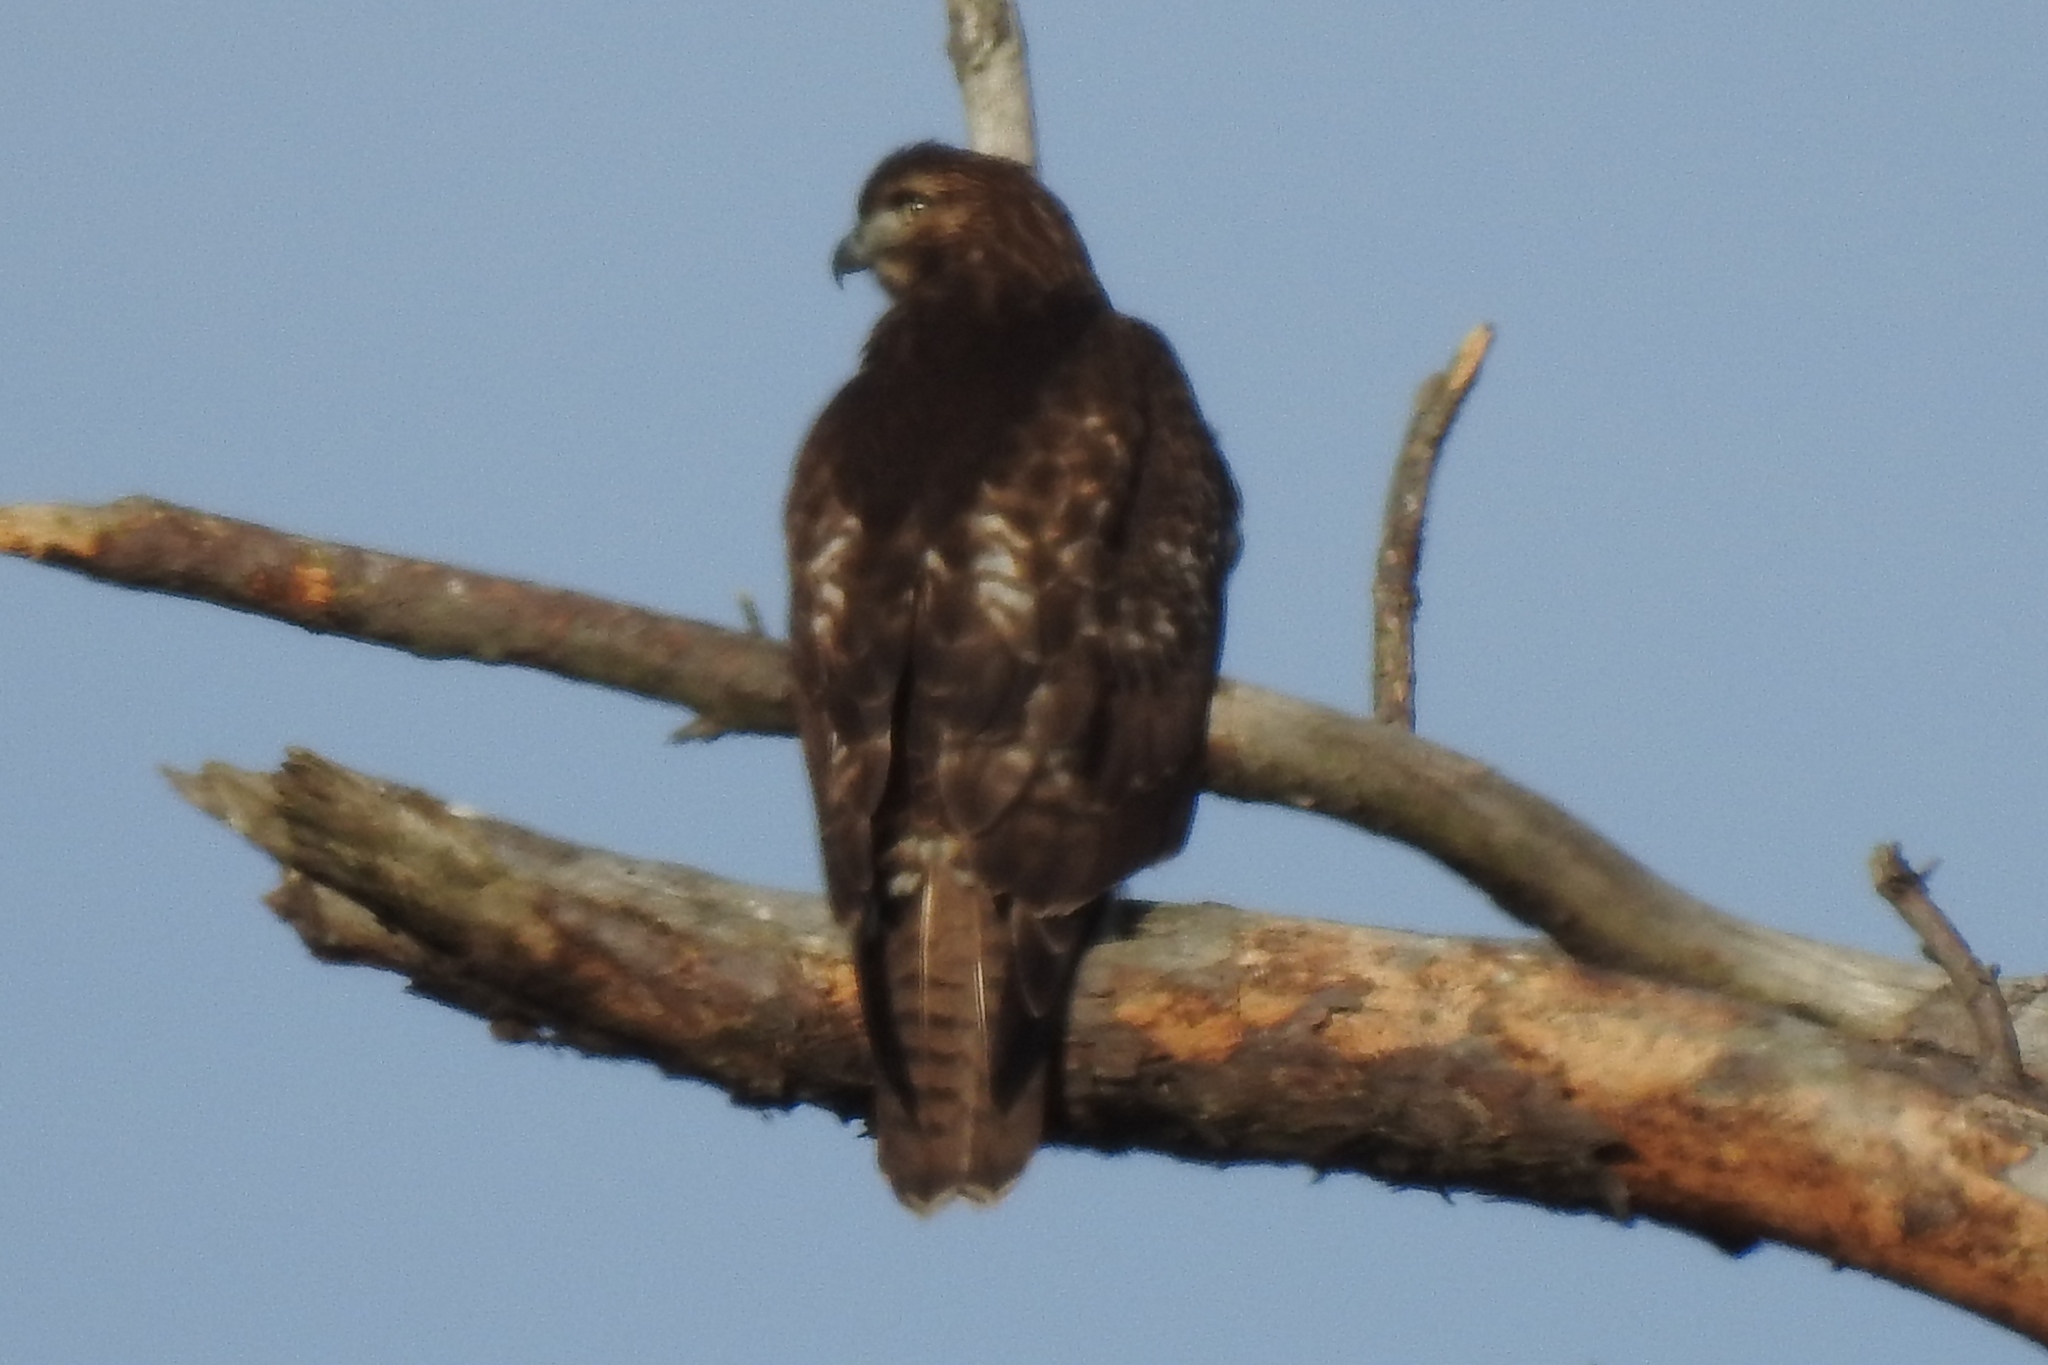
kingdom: Animalia
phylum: Chordata
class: Aves
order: Accipitriformes
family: Accipitridae
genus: Buteo
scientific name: Buteo jamaicensis
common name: Red-tailed hawk
